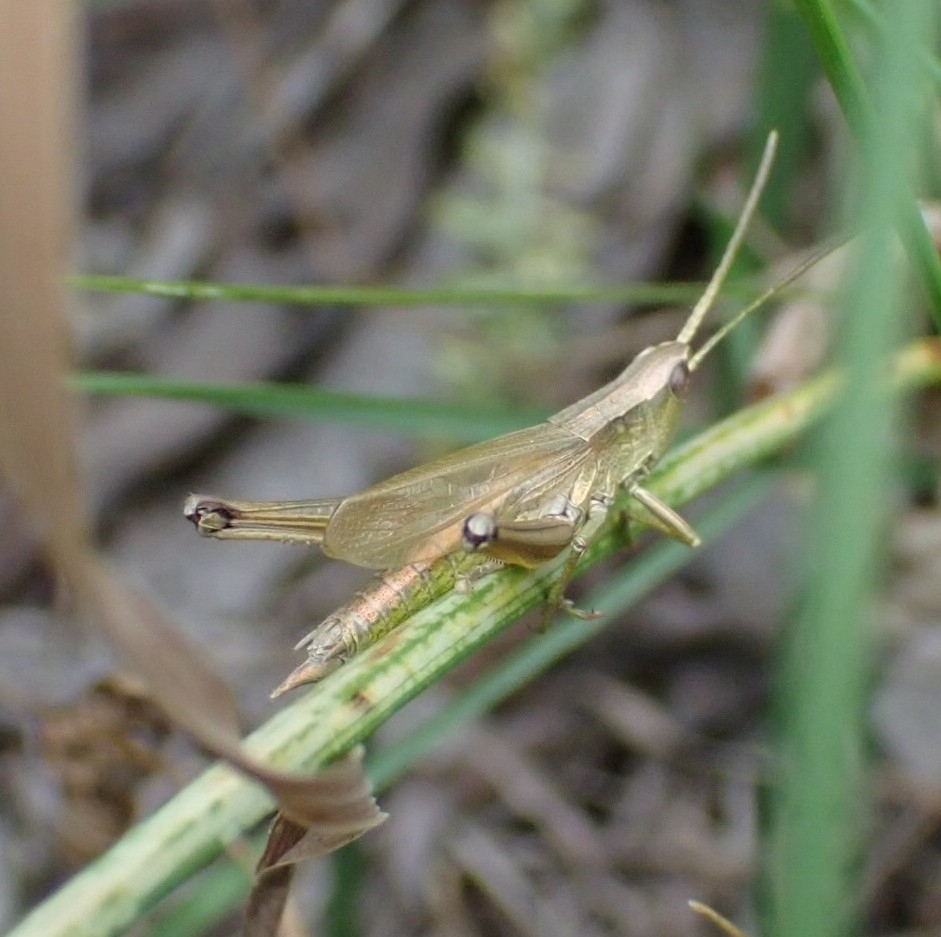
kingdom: Animalia
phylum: Arthropoda
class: Insecta
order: Orthoptera
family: Acrididae
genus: Chrysochraon
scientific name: Chrysochraon dispar
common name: Large gold grasshopper
